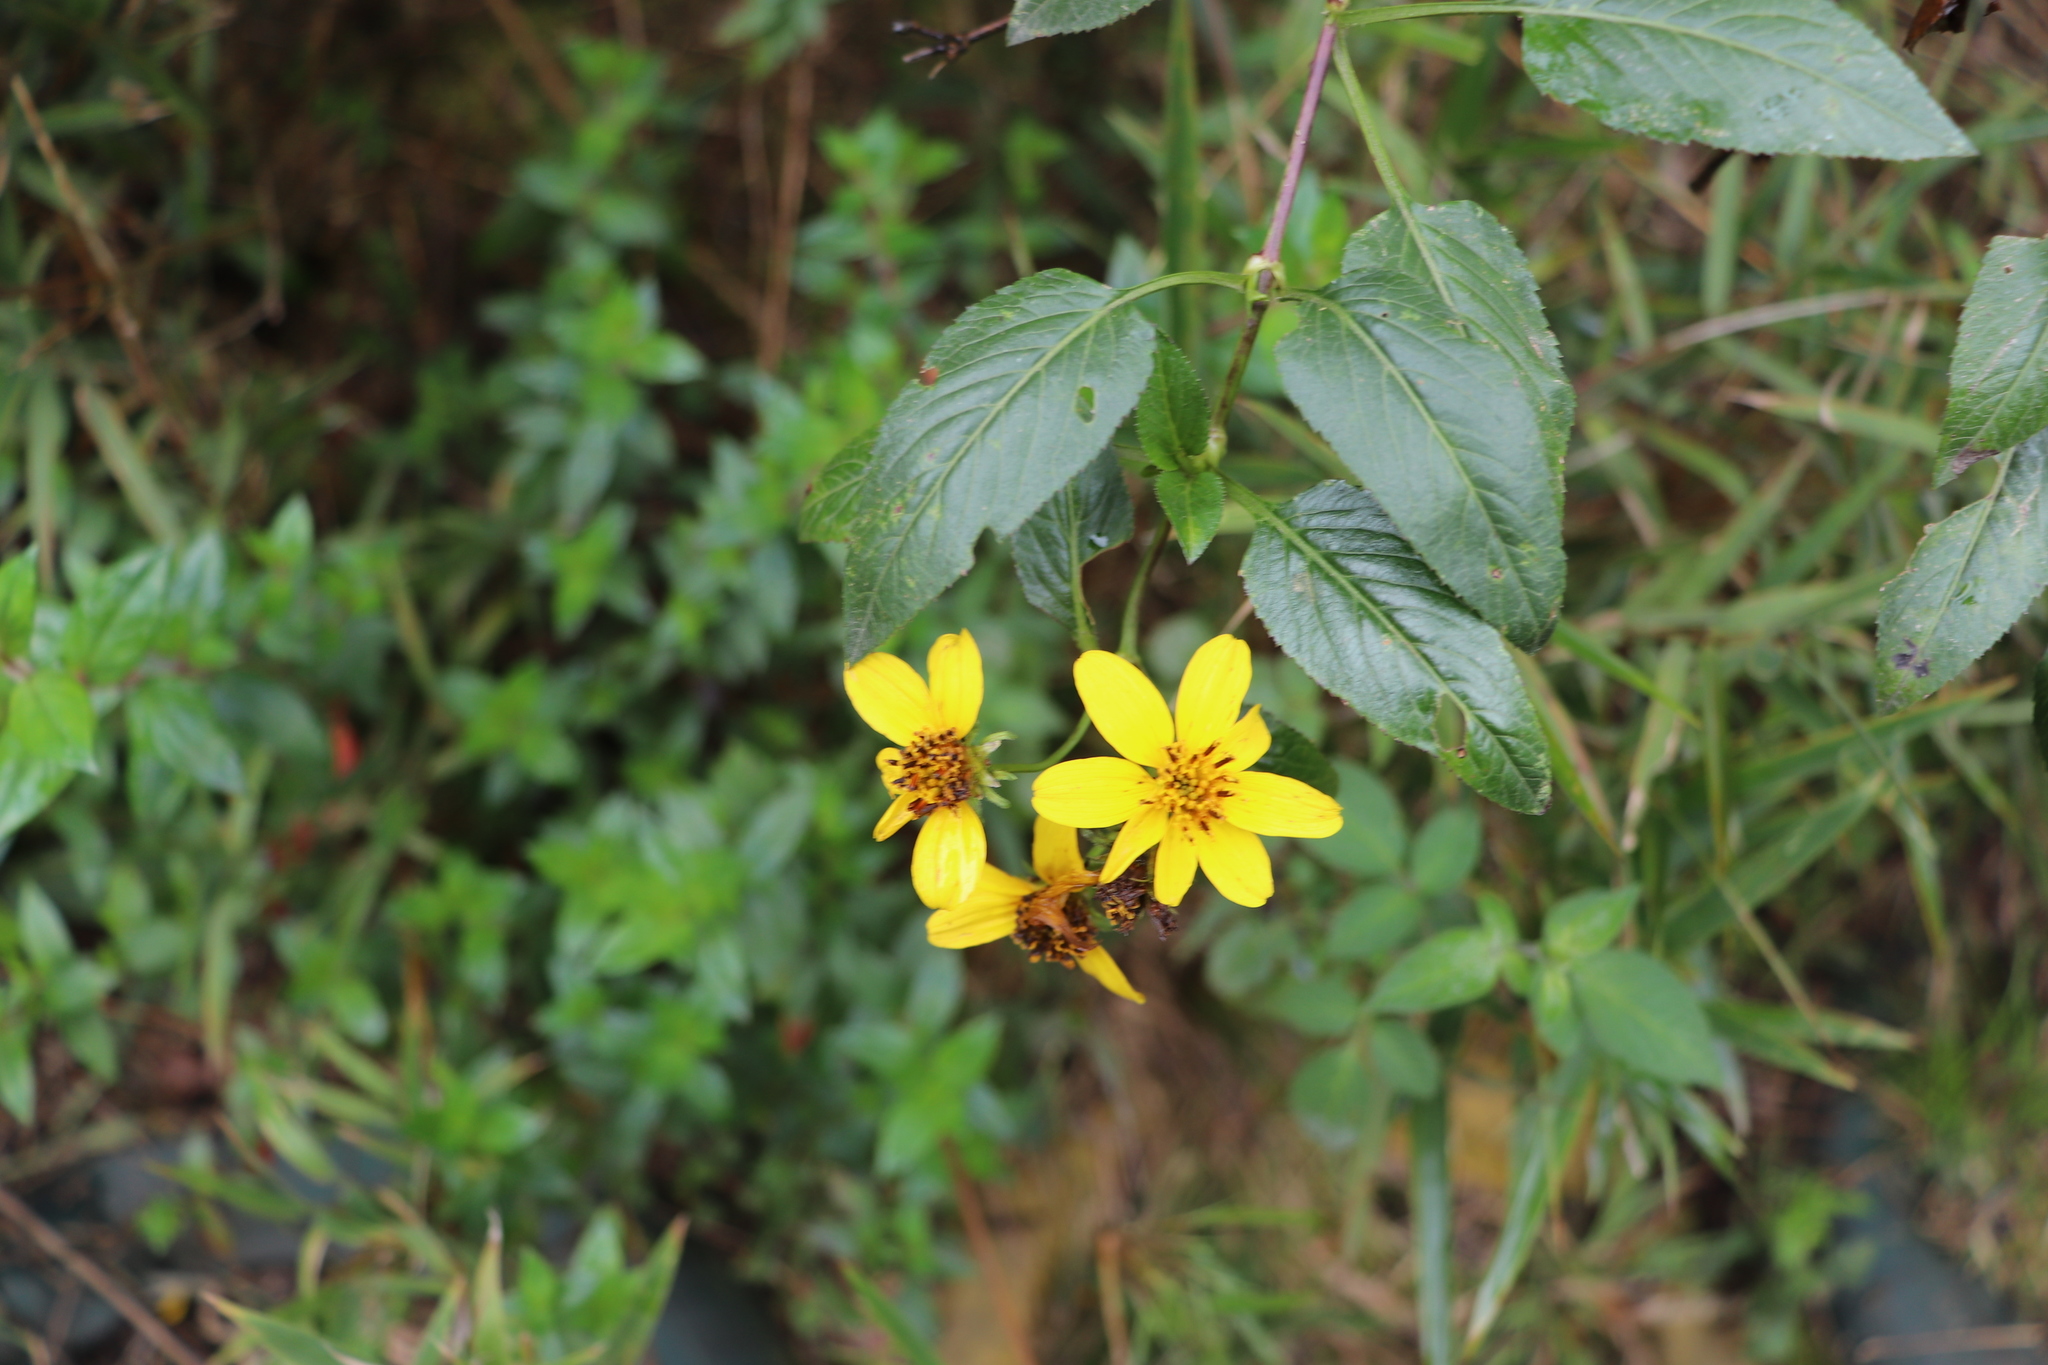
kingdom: Plantae
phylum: Tracheophyta
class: Magnoliopsida
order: Asterales
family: Asteraceae
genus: Bidens
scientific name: Bidens rubifolia
